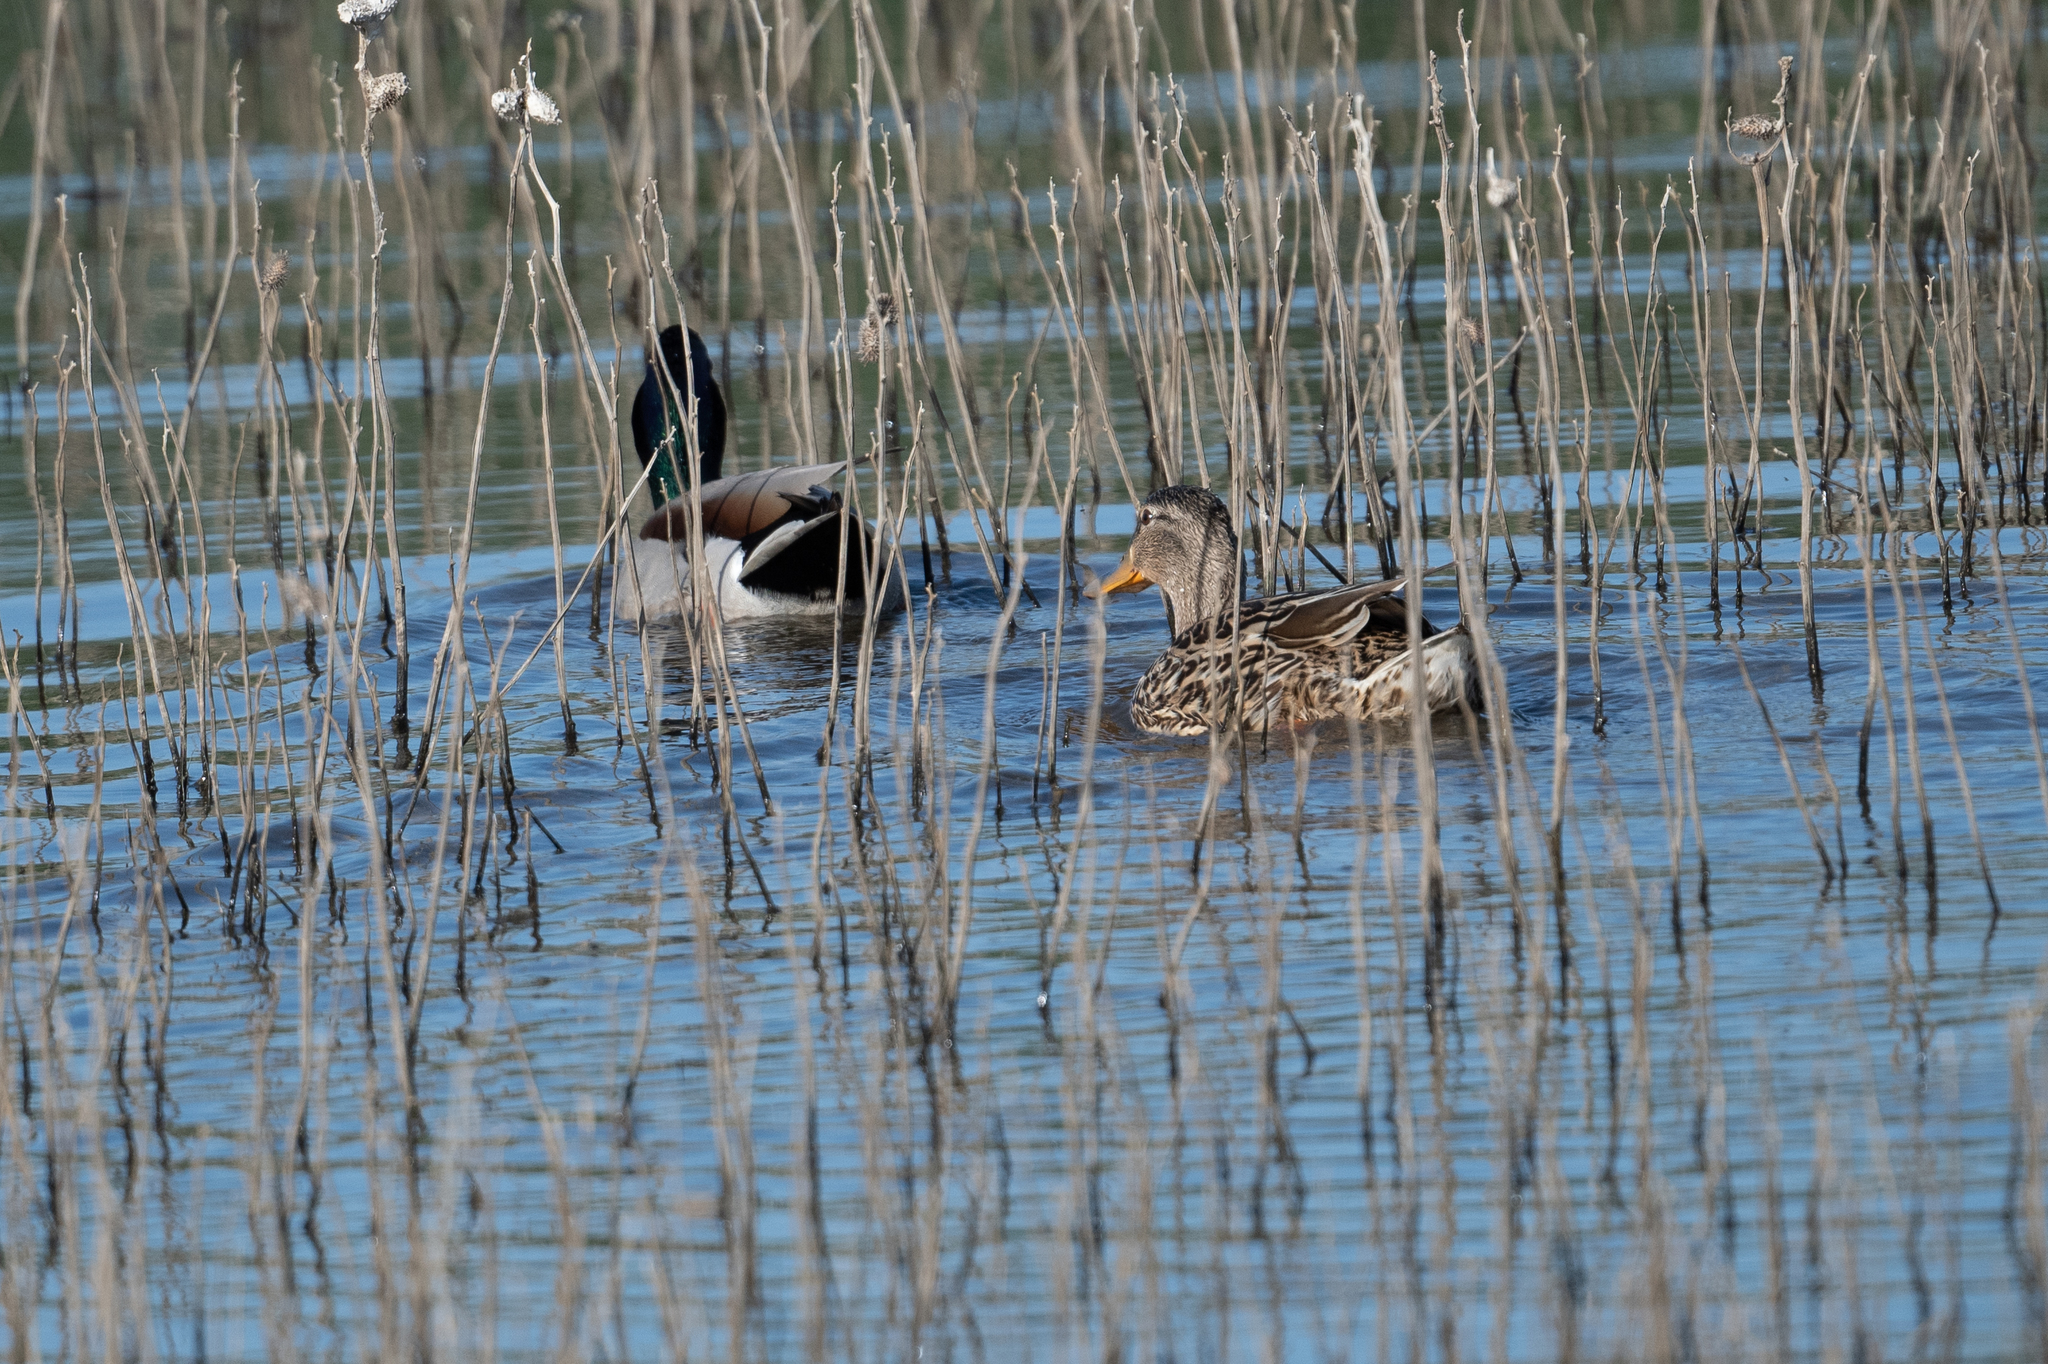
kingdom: Animalia
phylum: Chordata
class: Aves
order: Anseriformes
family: Anatidae
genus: Anas
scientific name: Anas platyrhynchos
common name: Mallard
